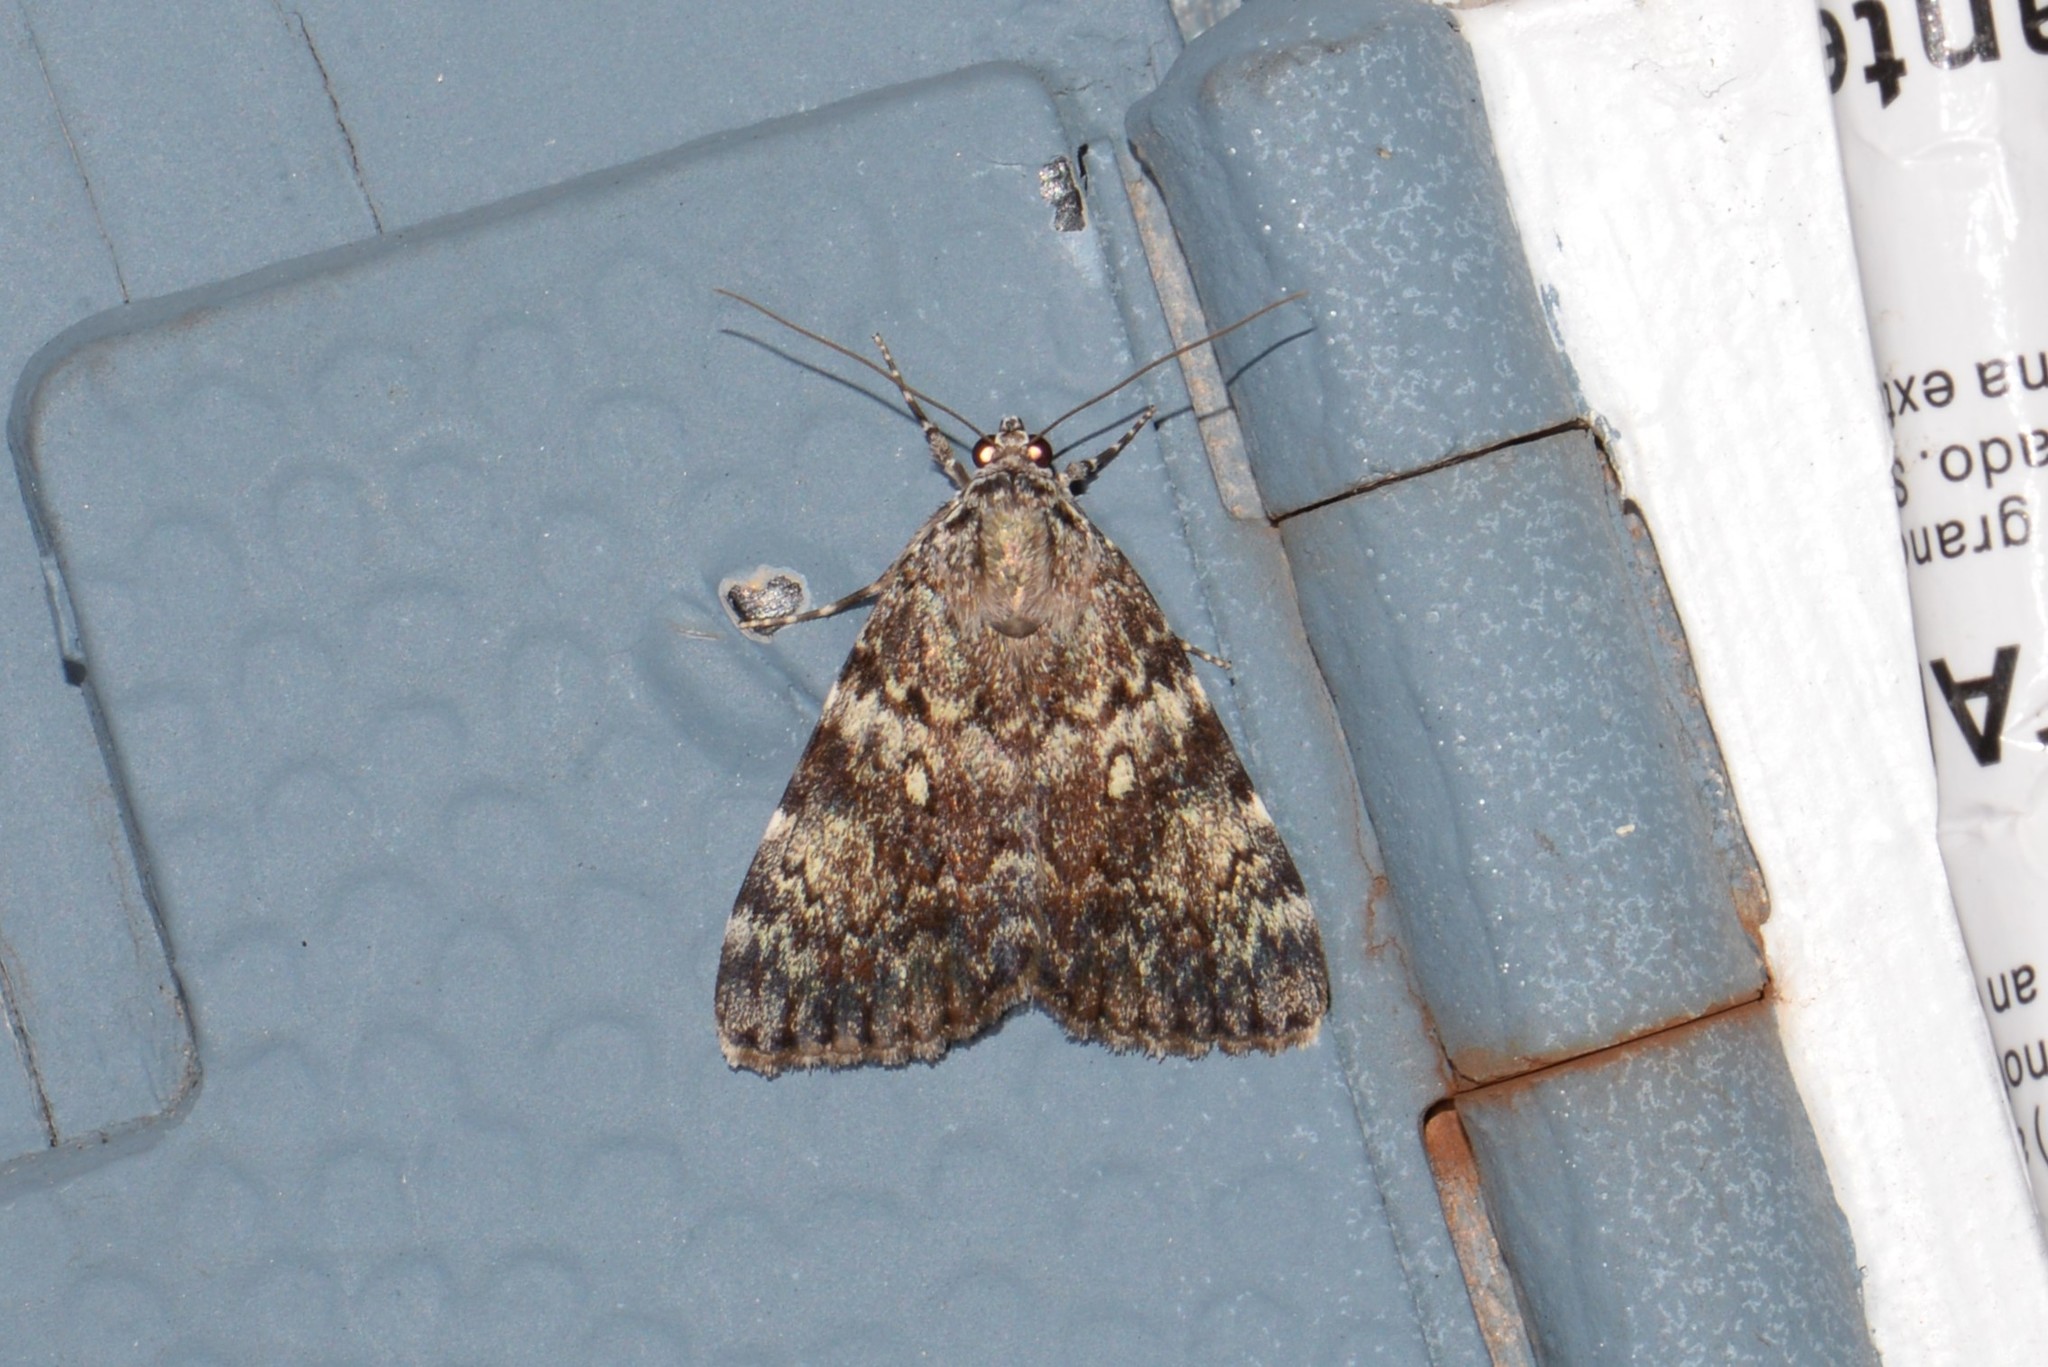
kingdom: Animalia
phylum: Arthropoda
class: Insecta
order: Lepidoptera
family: Erebidae
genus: Catocala
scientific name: Catocala lineella
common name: Little lined underwing
